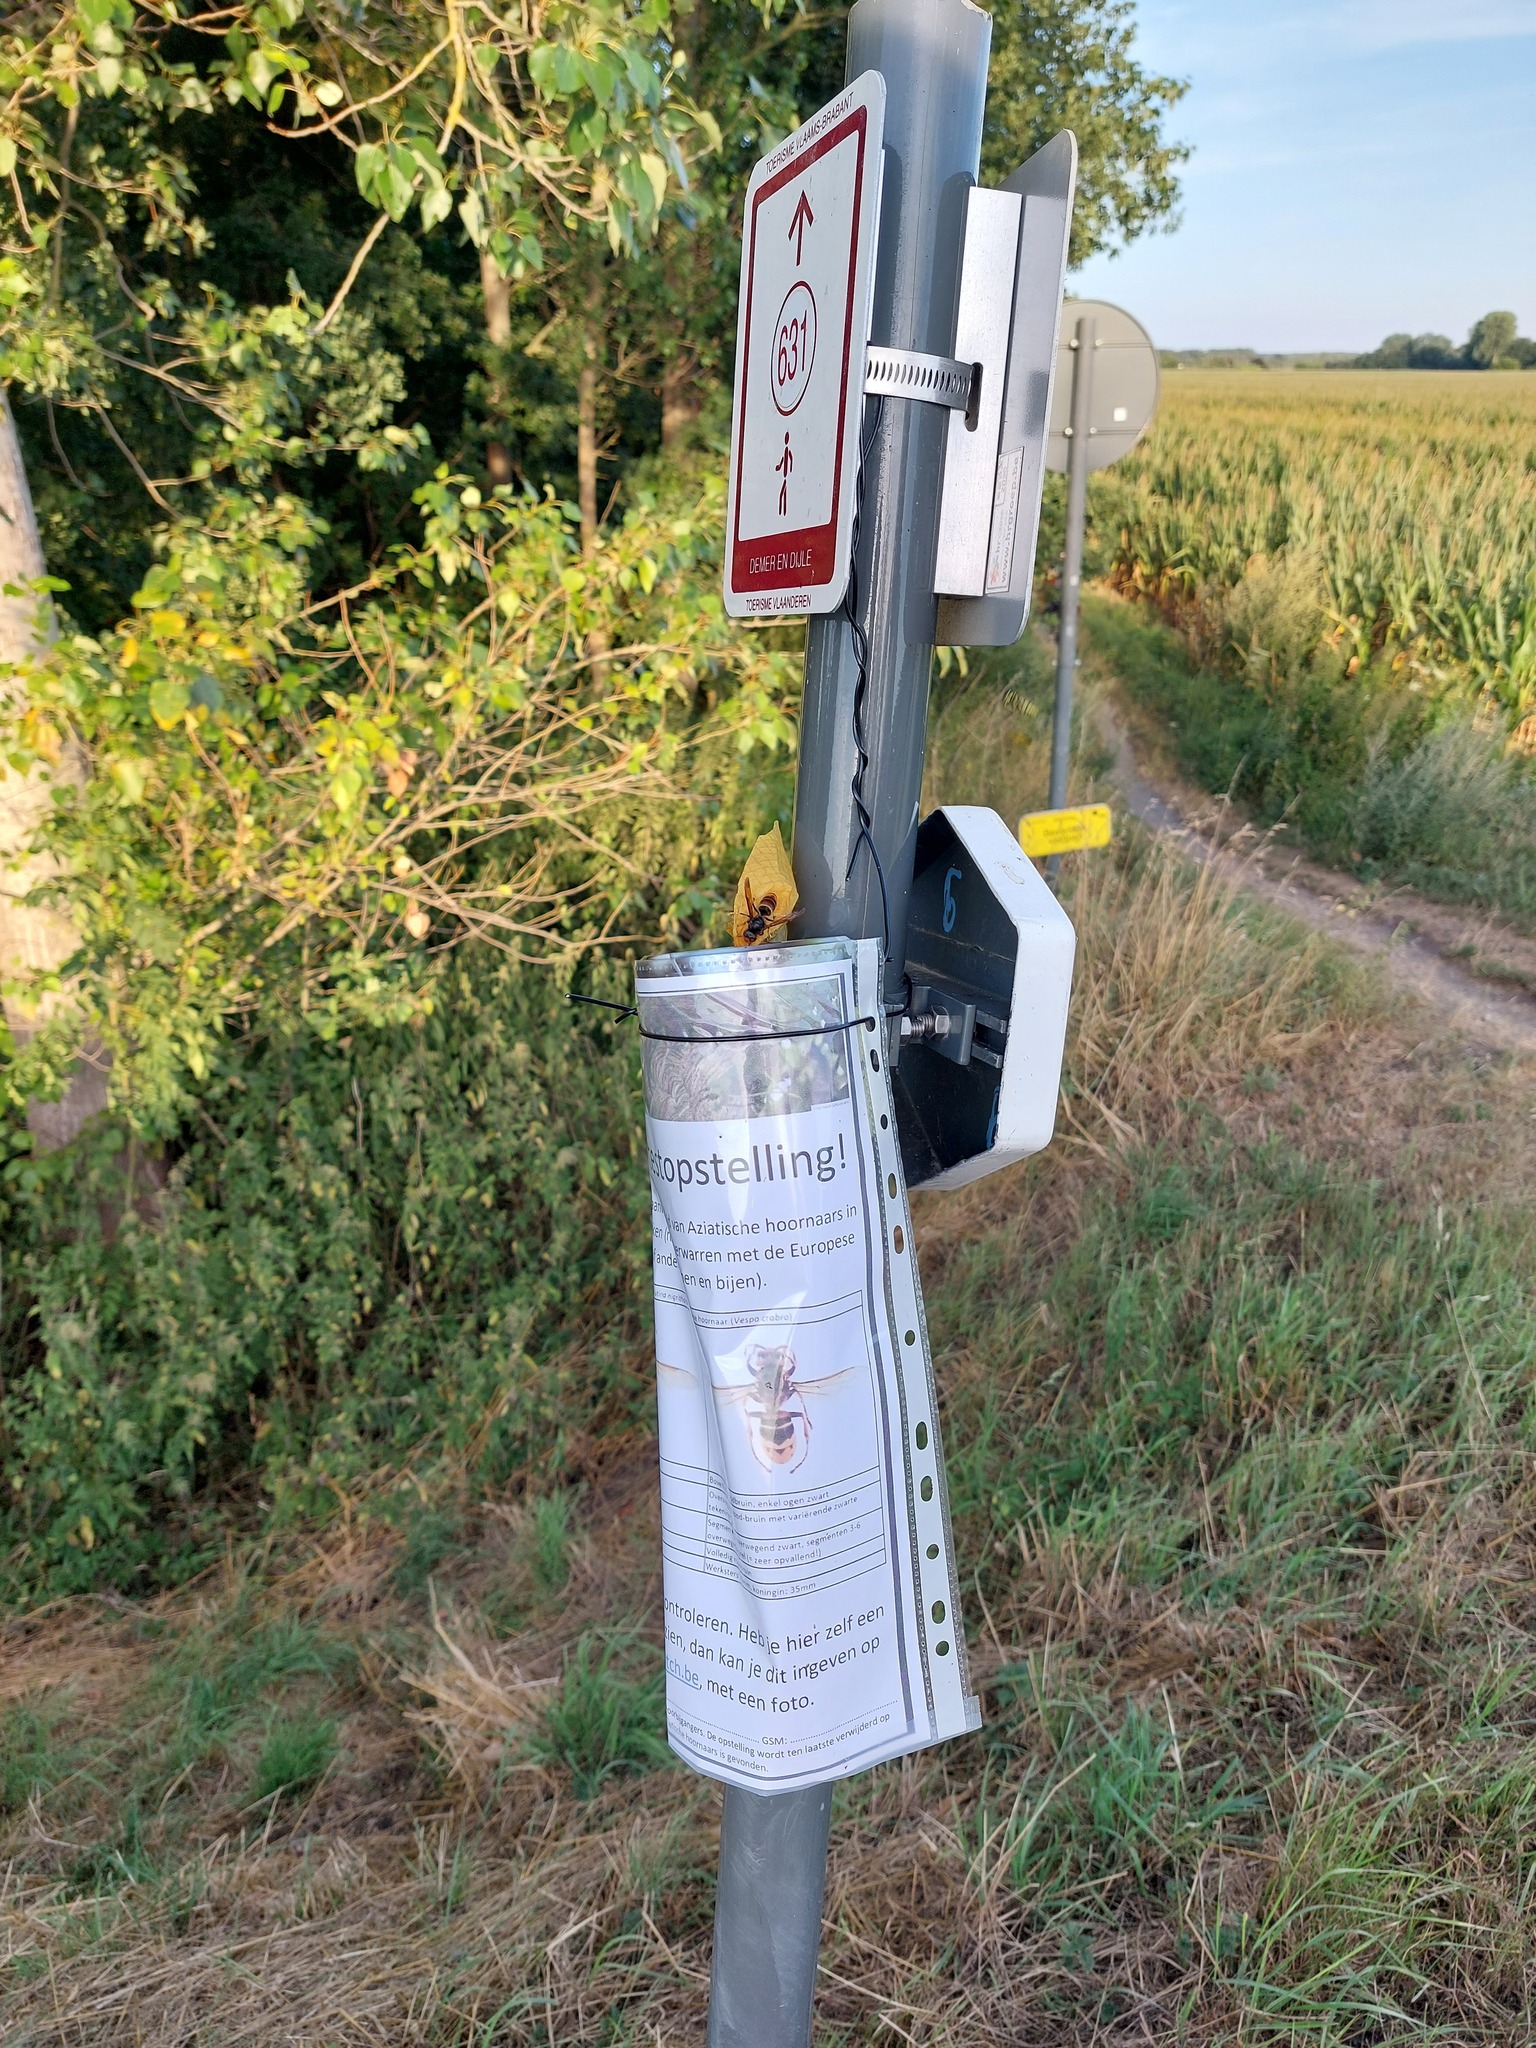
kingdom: Animalia
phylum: Arthropoda
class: Insecta
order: Hymenoptera
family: Vespidae
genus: Vespa
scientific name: Vespa velutina
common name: Asian hornet
